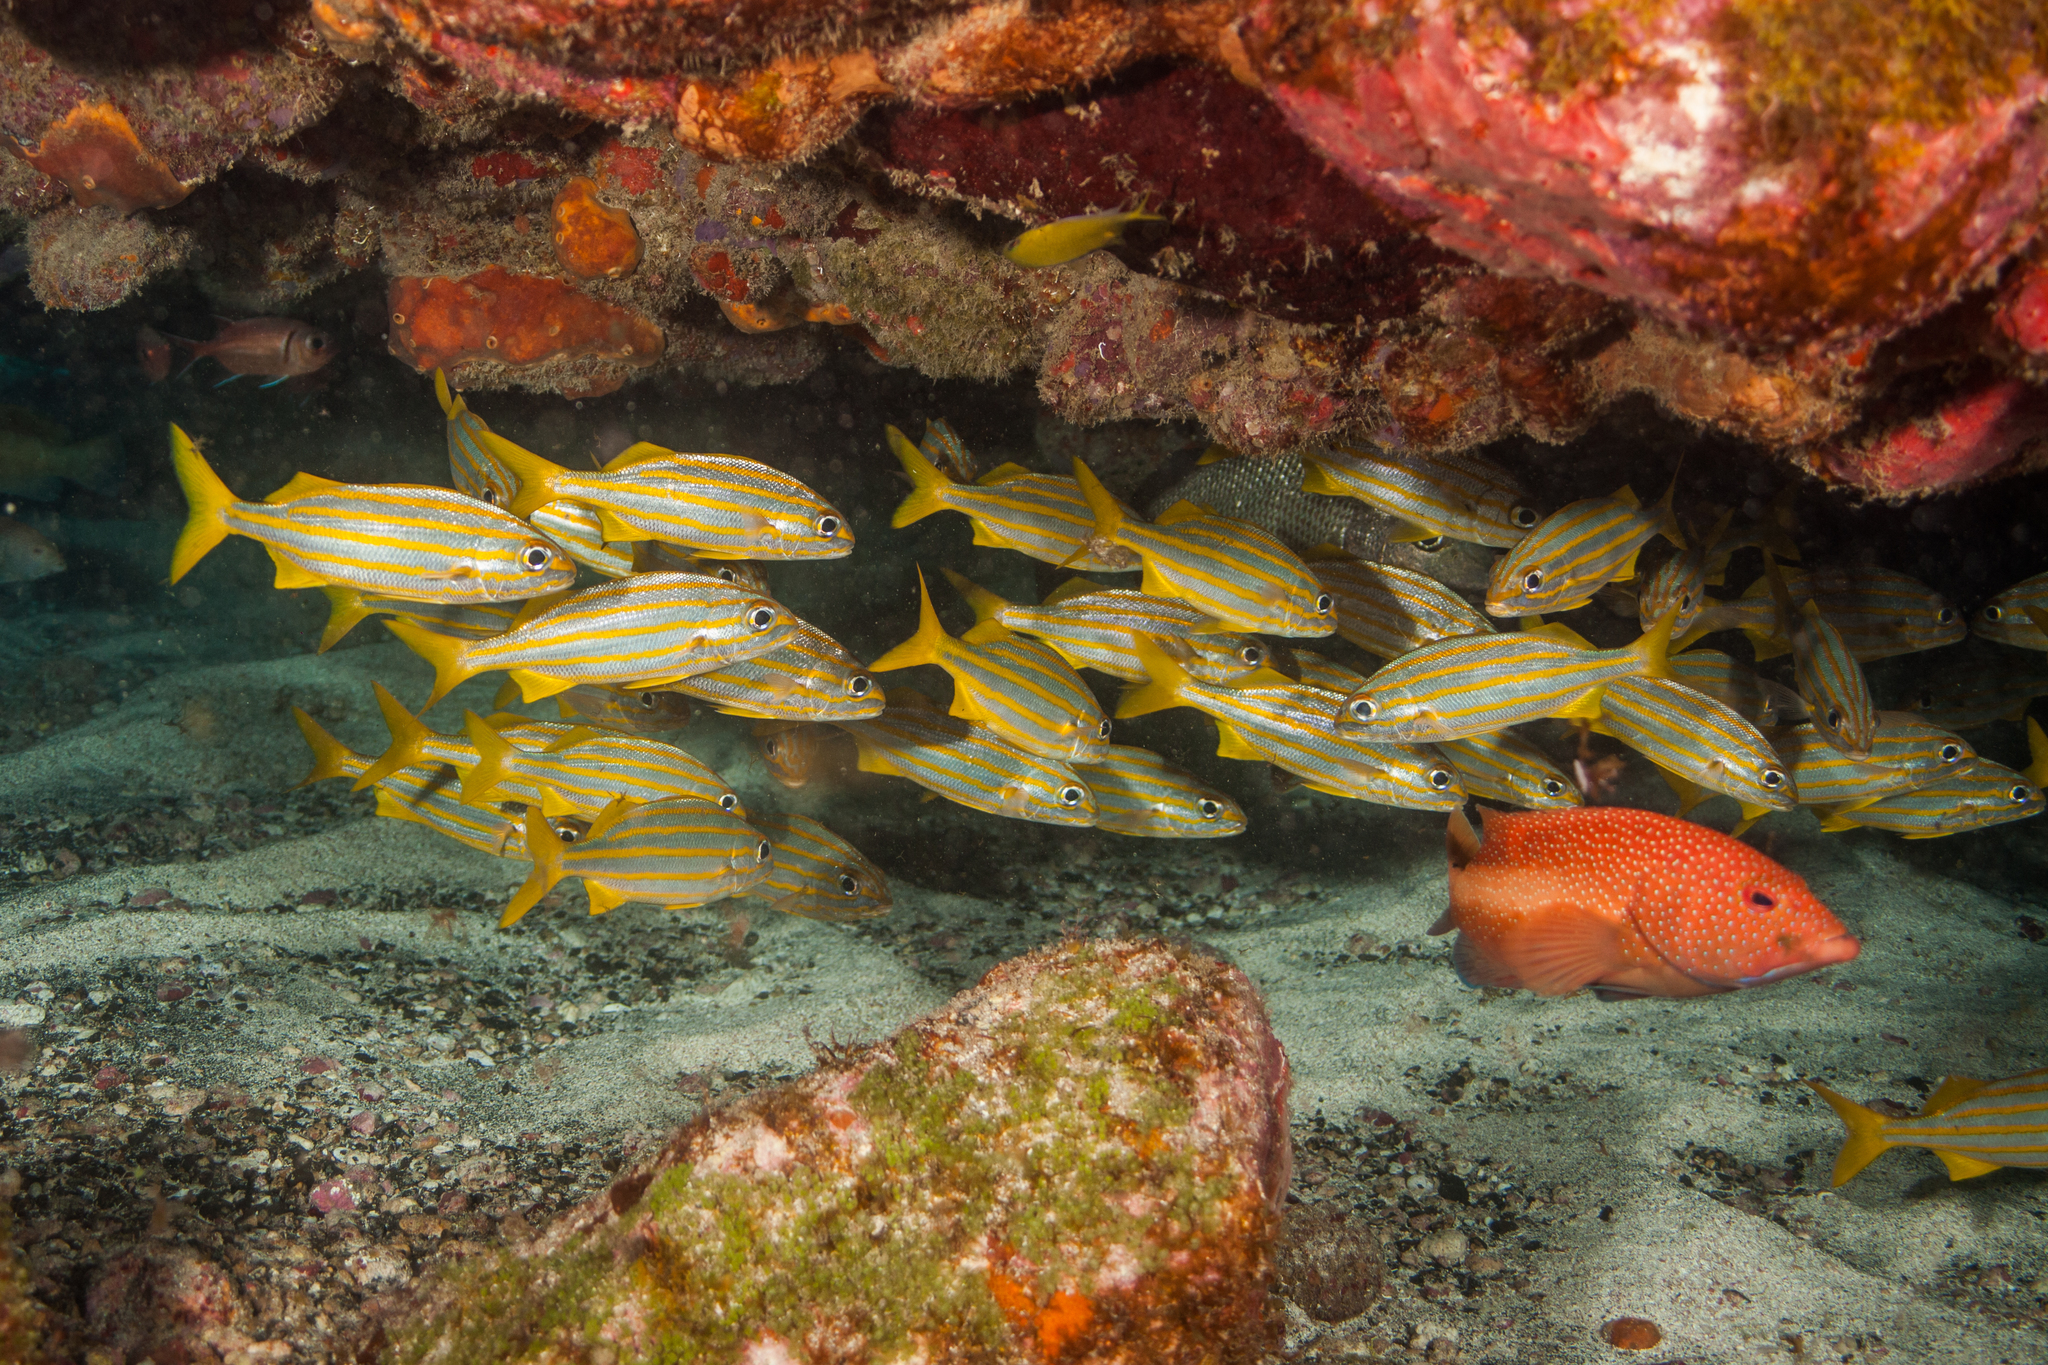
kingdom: Animalia
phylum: Chordata
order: Perciformes
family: Serranidae
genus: Cephalopholis
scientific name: Cephalopholis fulva
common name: Butterfish
